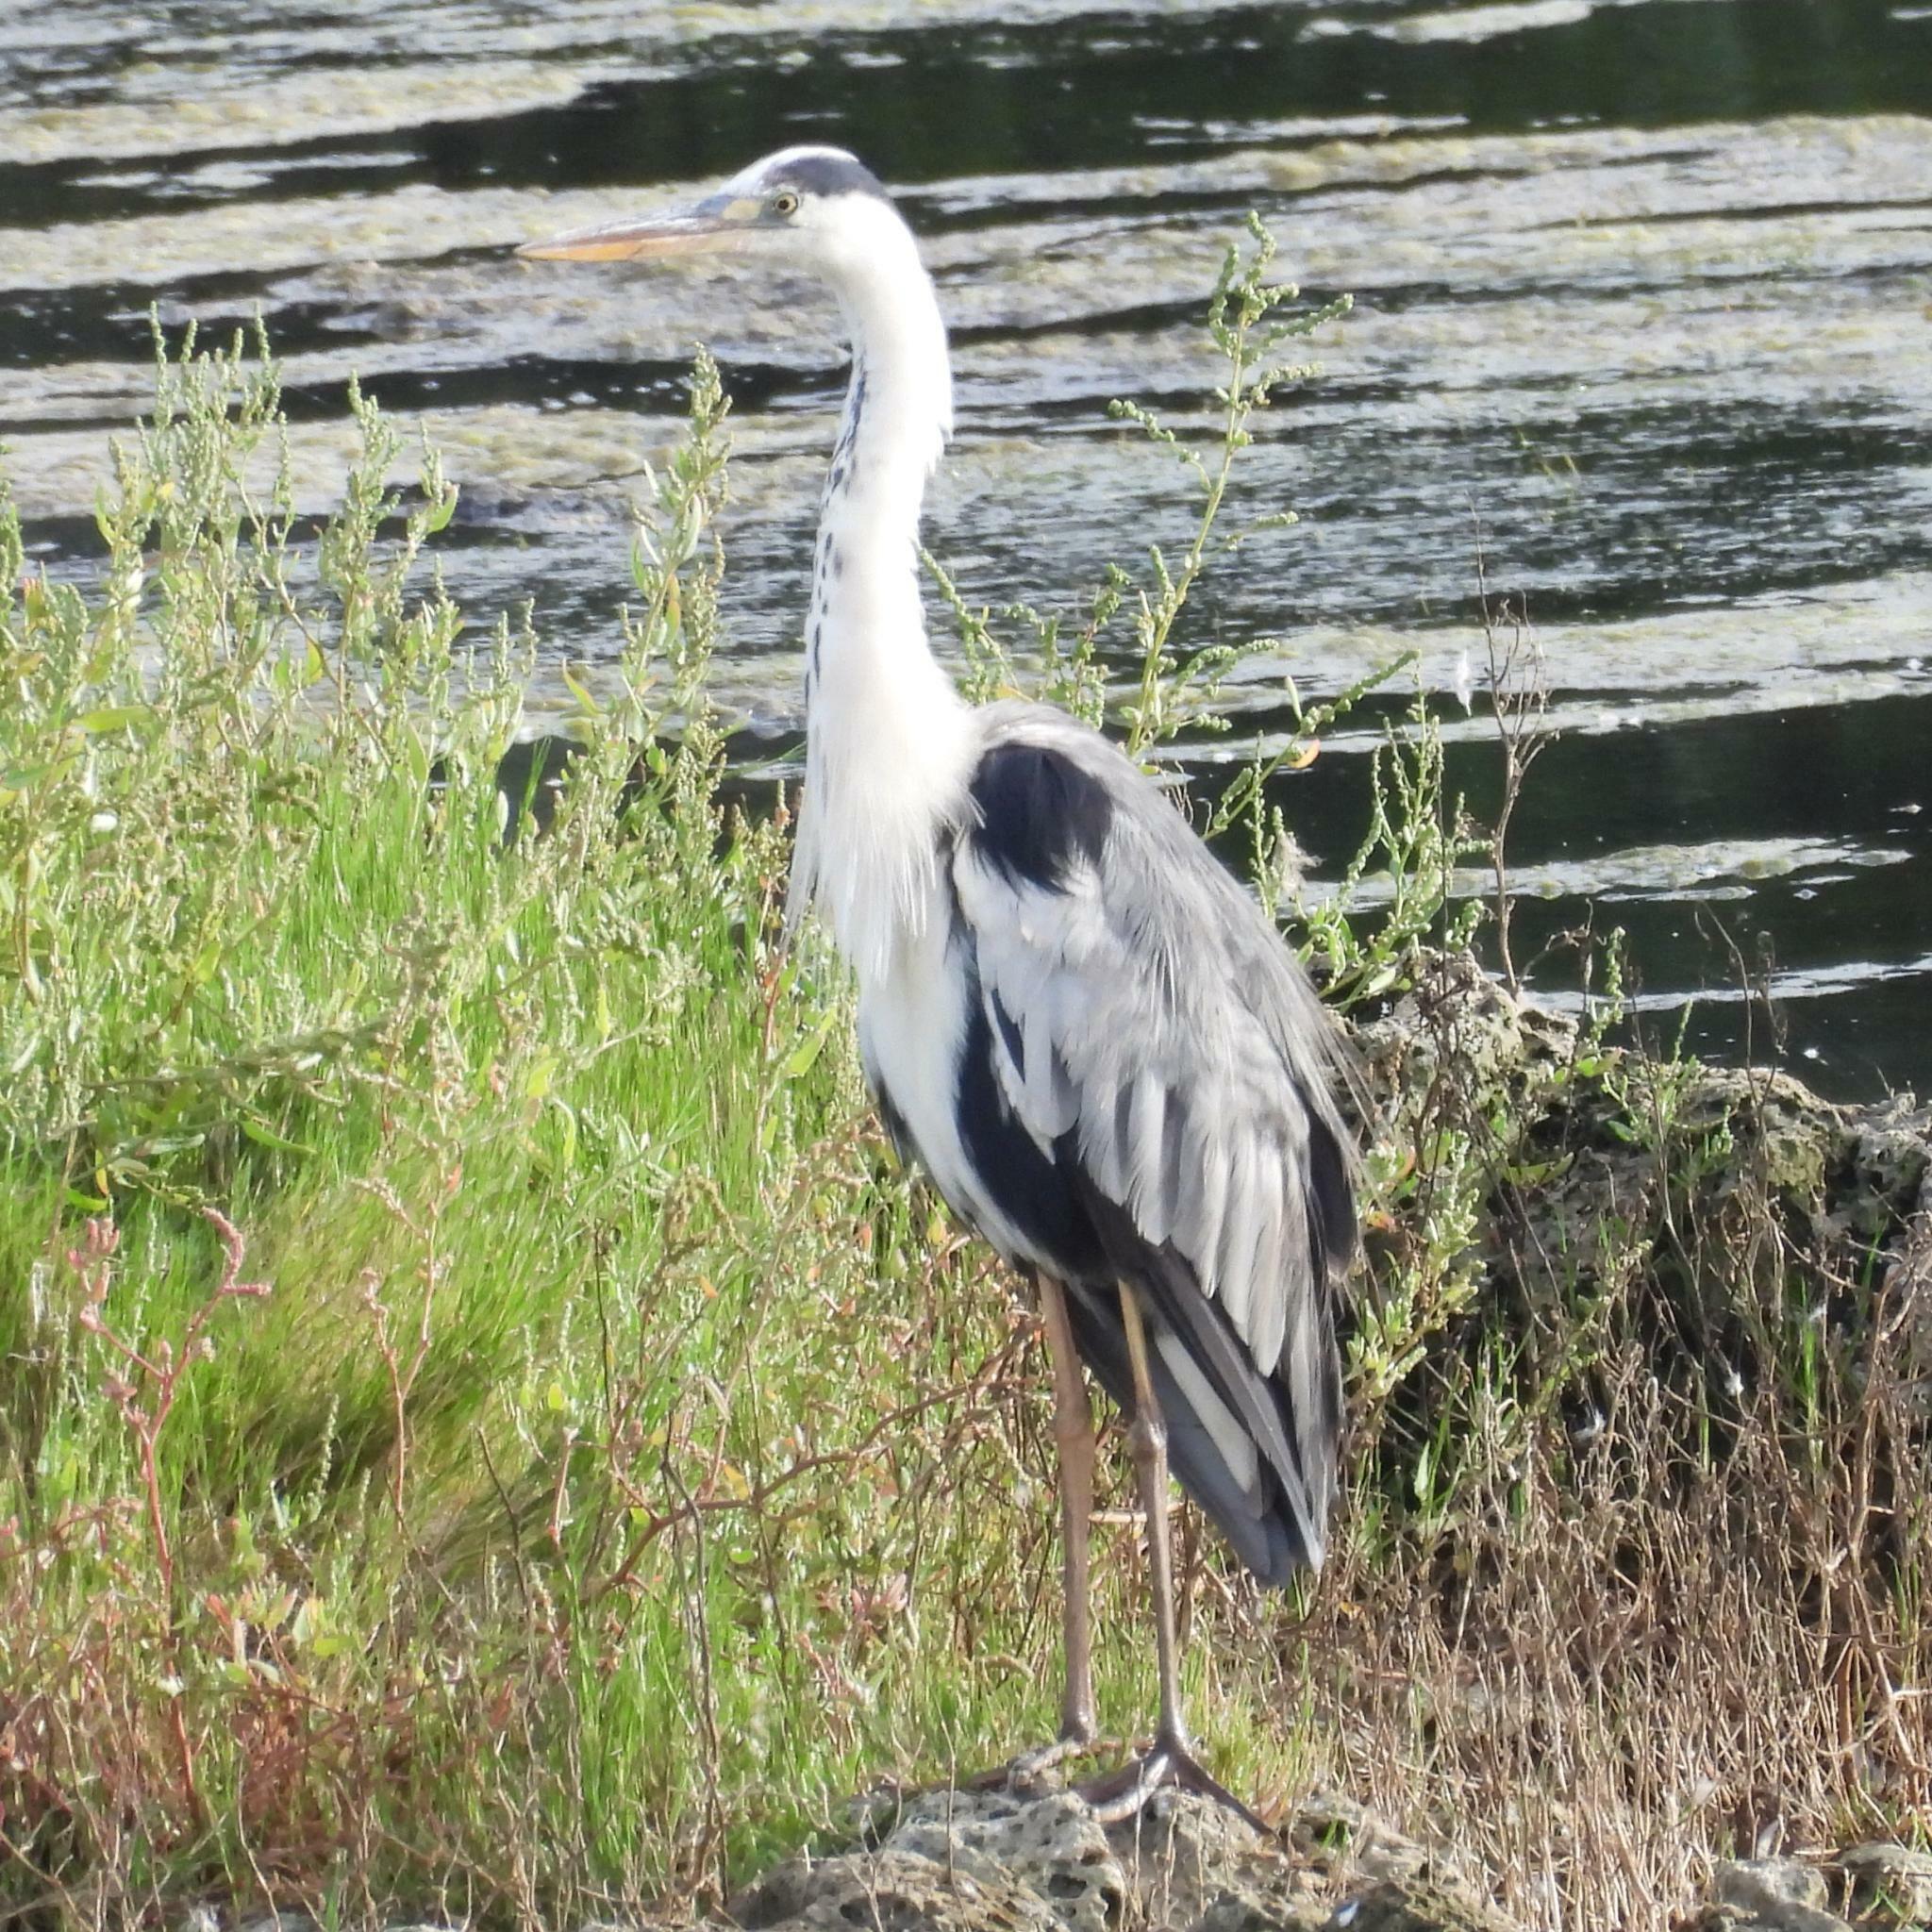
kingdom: Animalia
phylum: Chordata
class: Aves
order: Pelecaniformes
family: Ardeidae
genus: Ardea
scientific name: Ardea cinerea
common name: Grey heron
